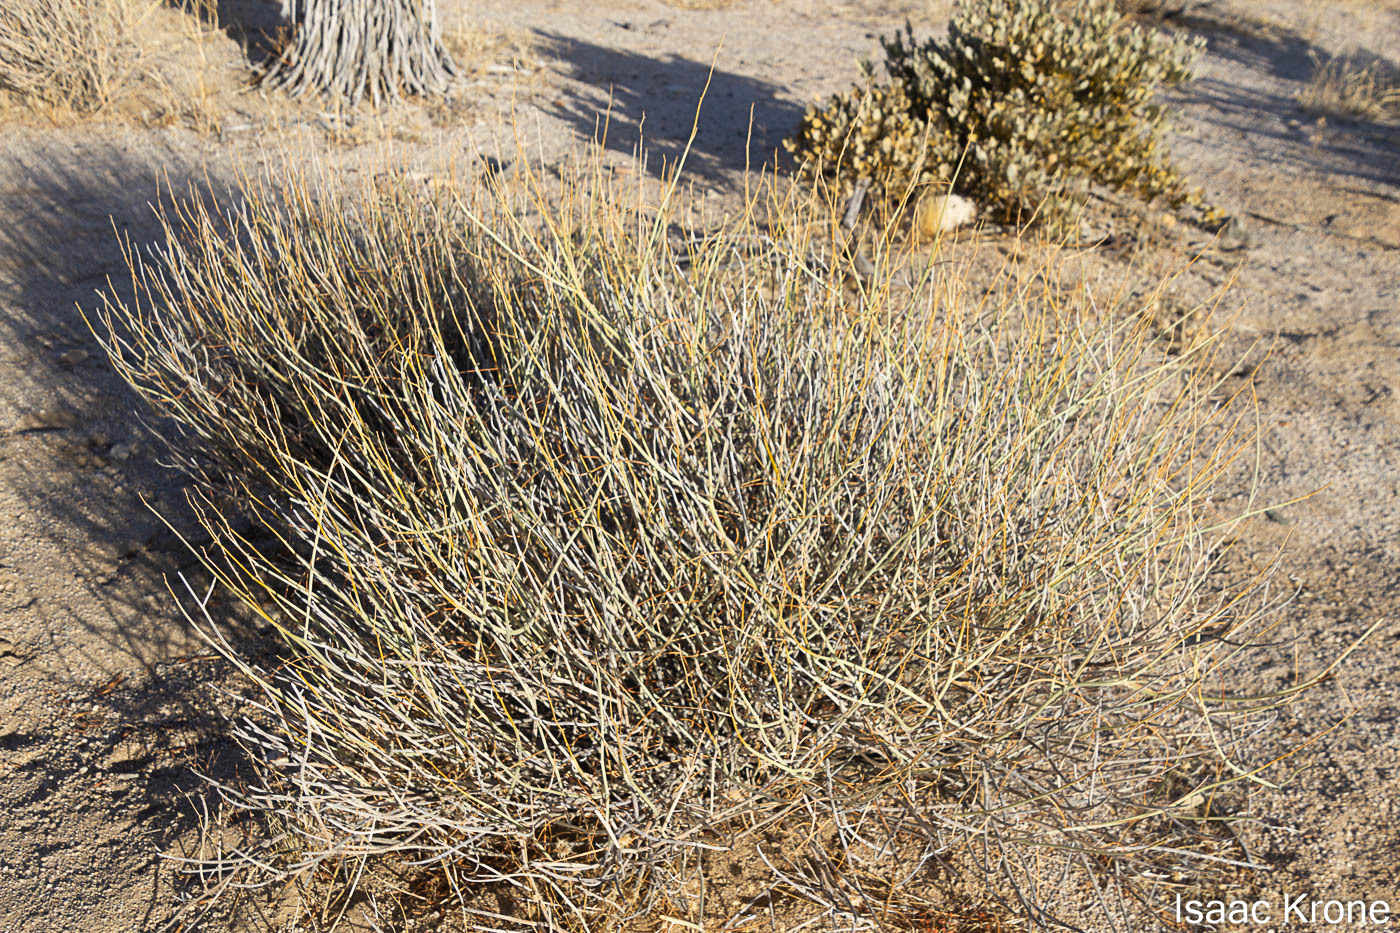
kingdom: Plantae
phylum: Tracheophyta
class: Magnoliopsida
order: Fabales
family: Fabaceae
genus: Senna
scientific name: Senna armata
